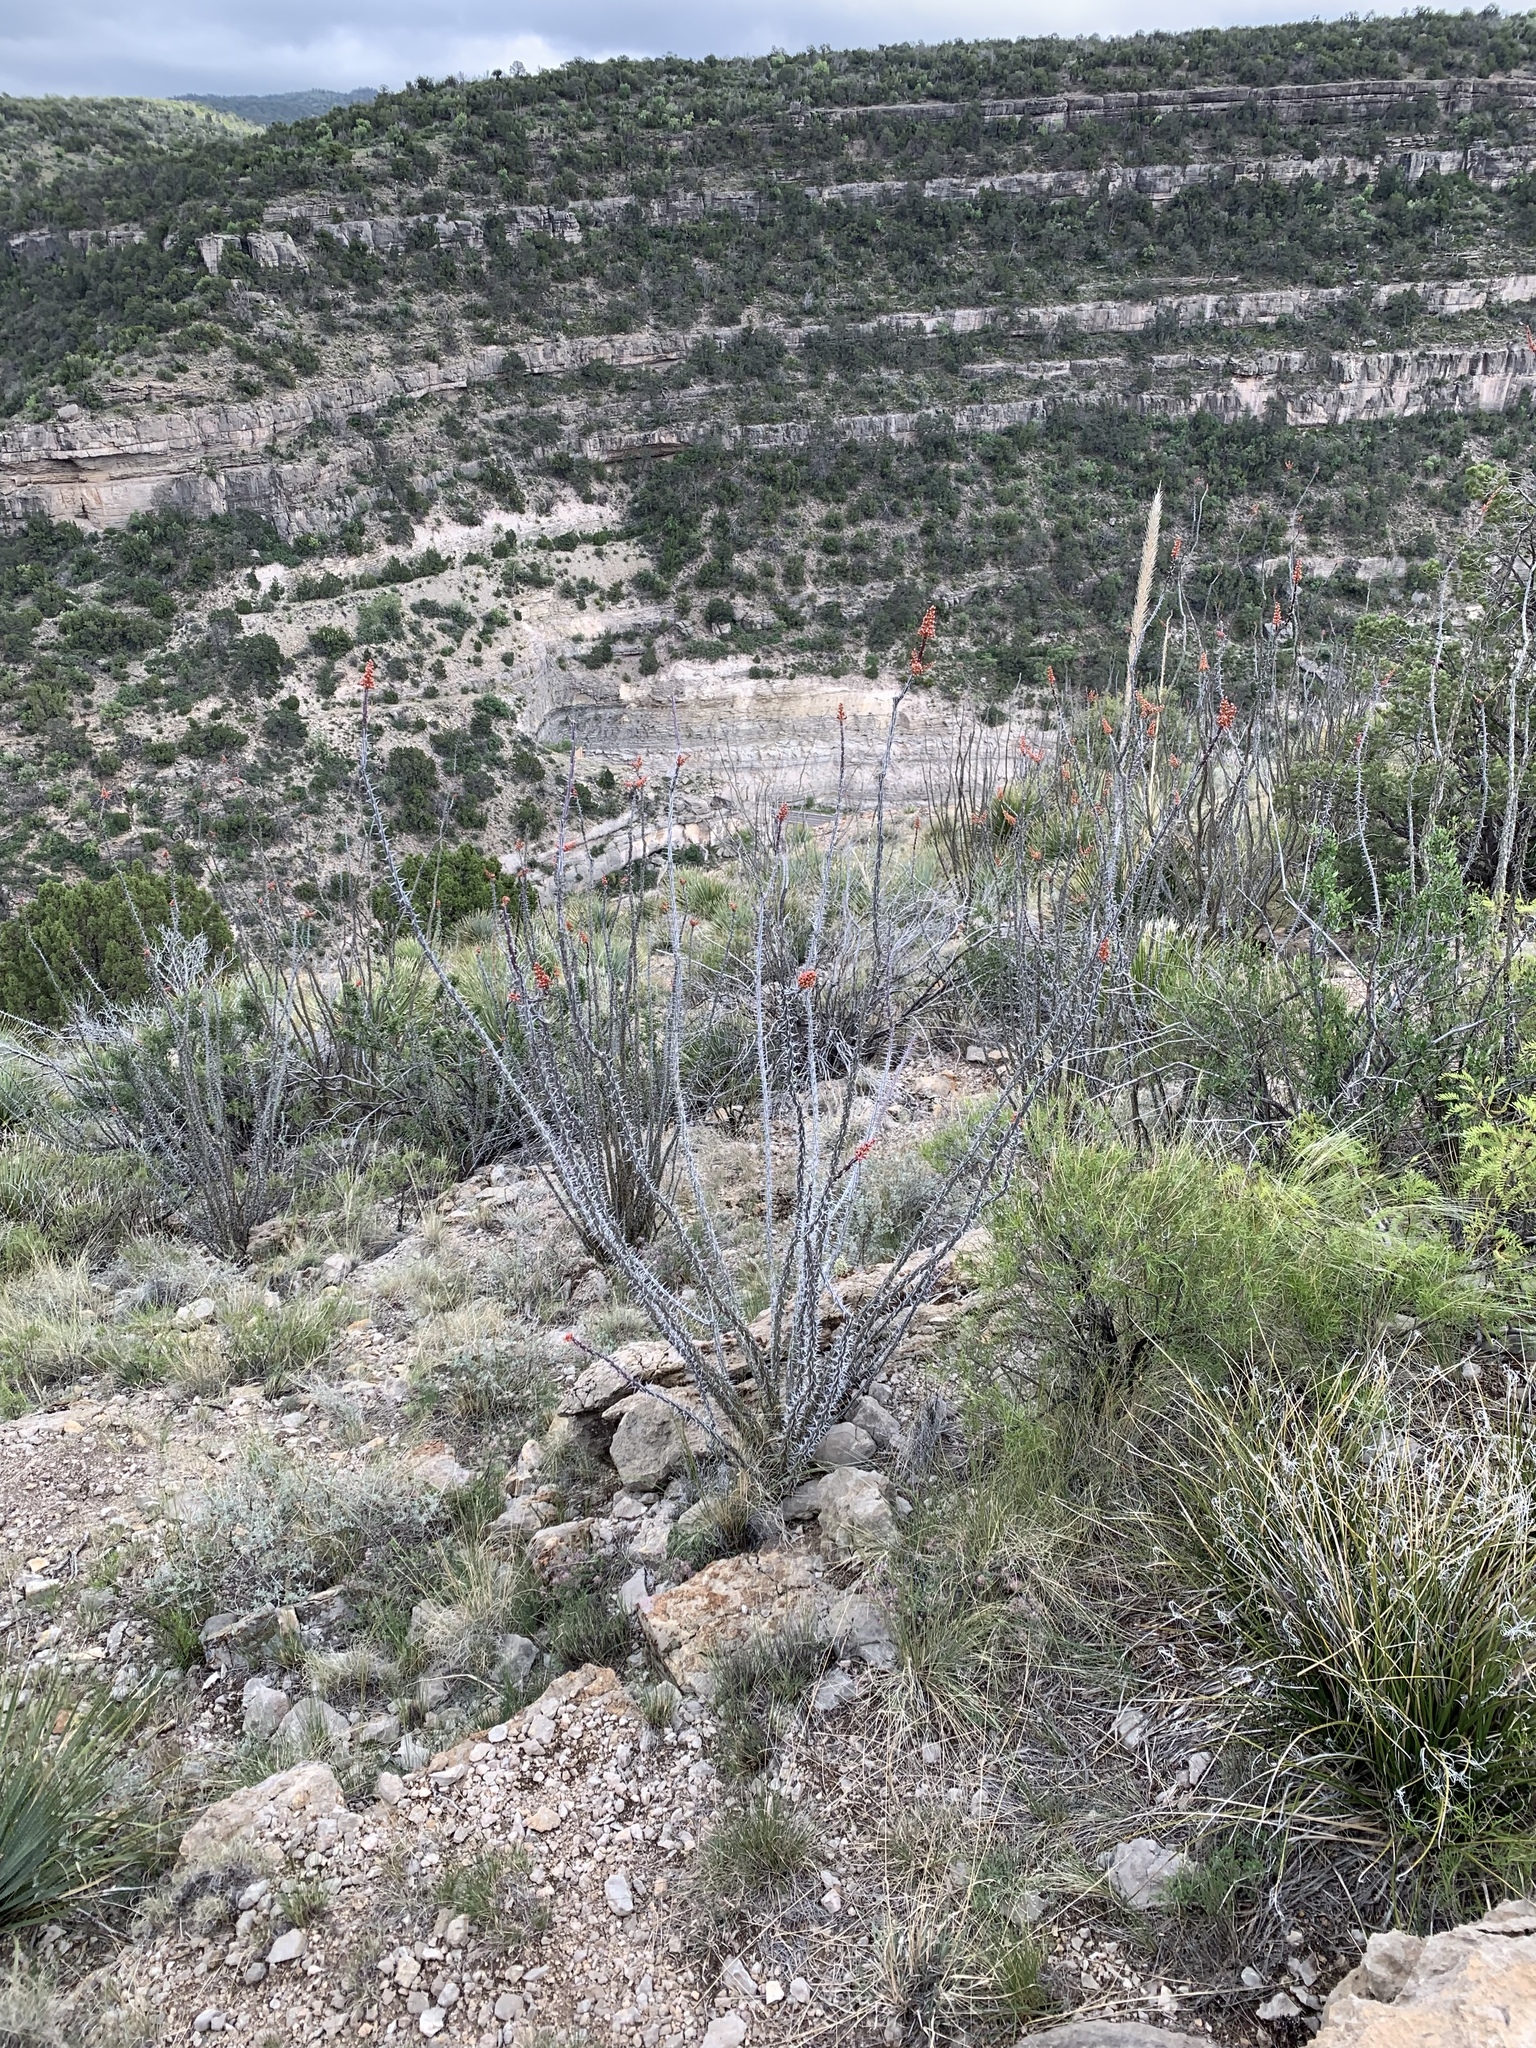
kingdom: Plantae
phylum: Tracheophyta
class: Magnoliopsida
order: Ericales
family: Fouquieriaceae
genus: Fouquieria
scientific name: Fouquieria splendens
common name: Vine-cactus
